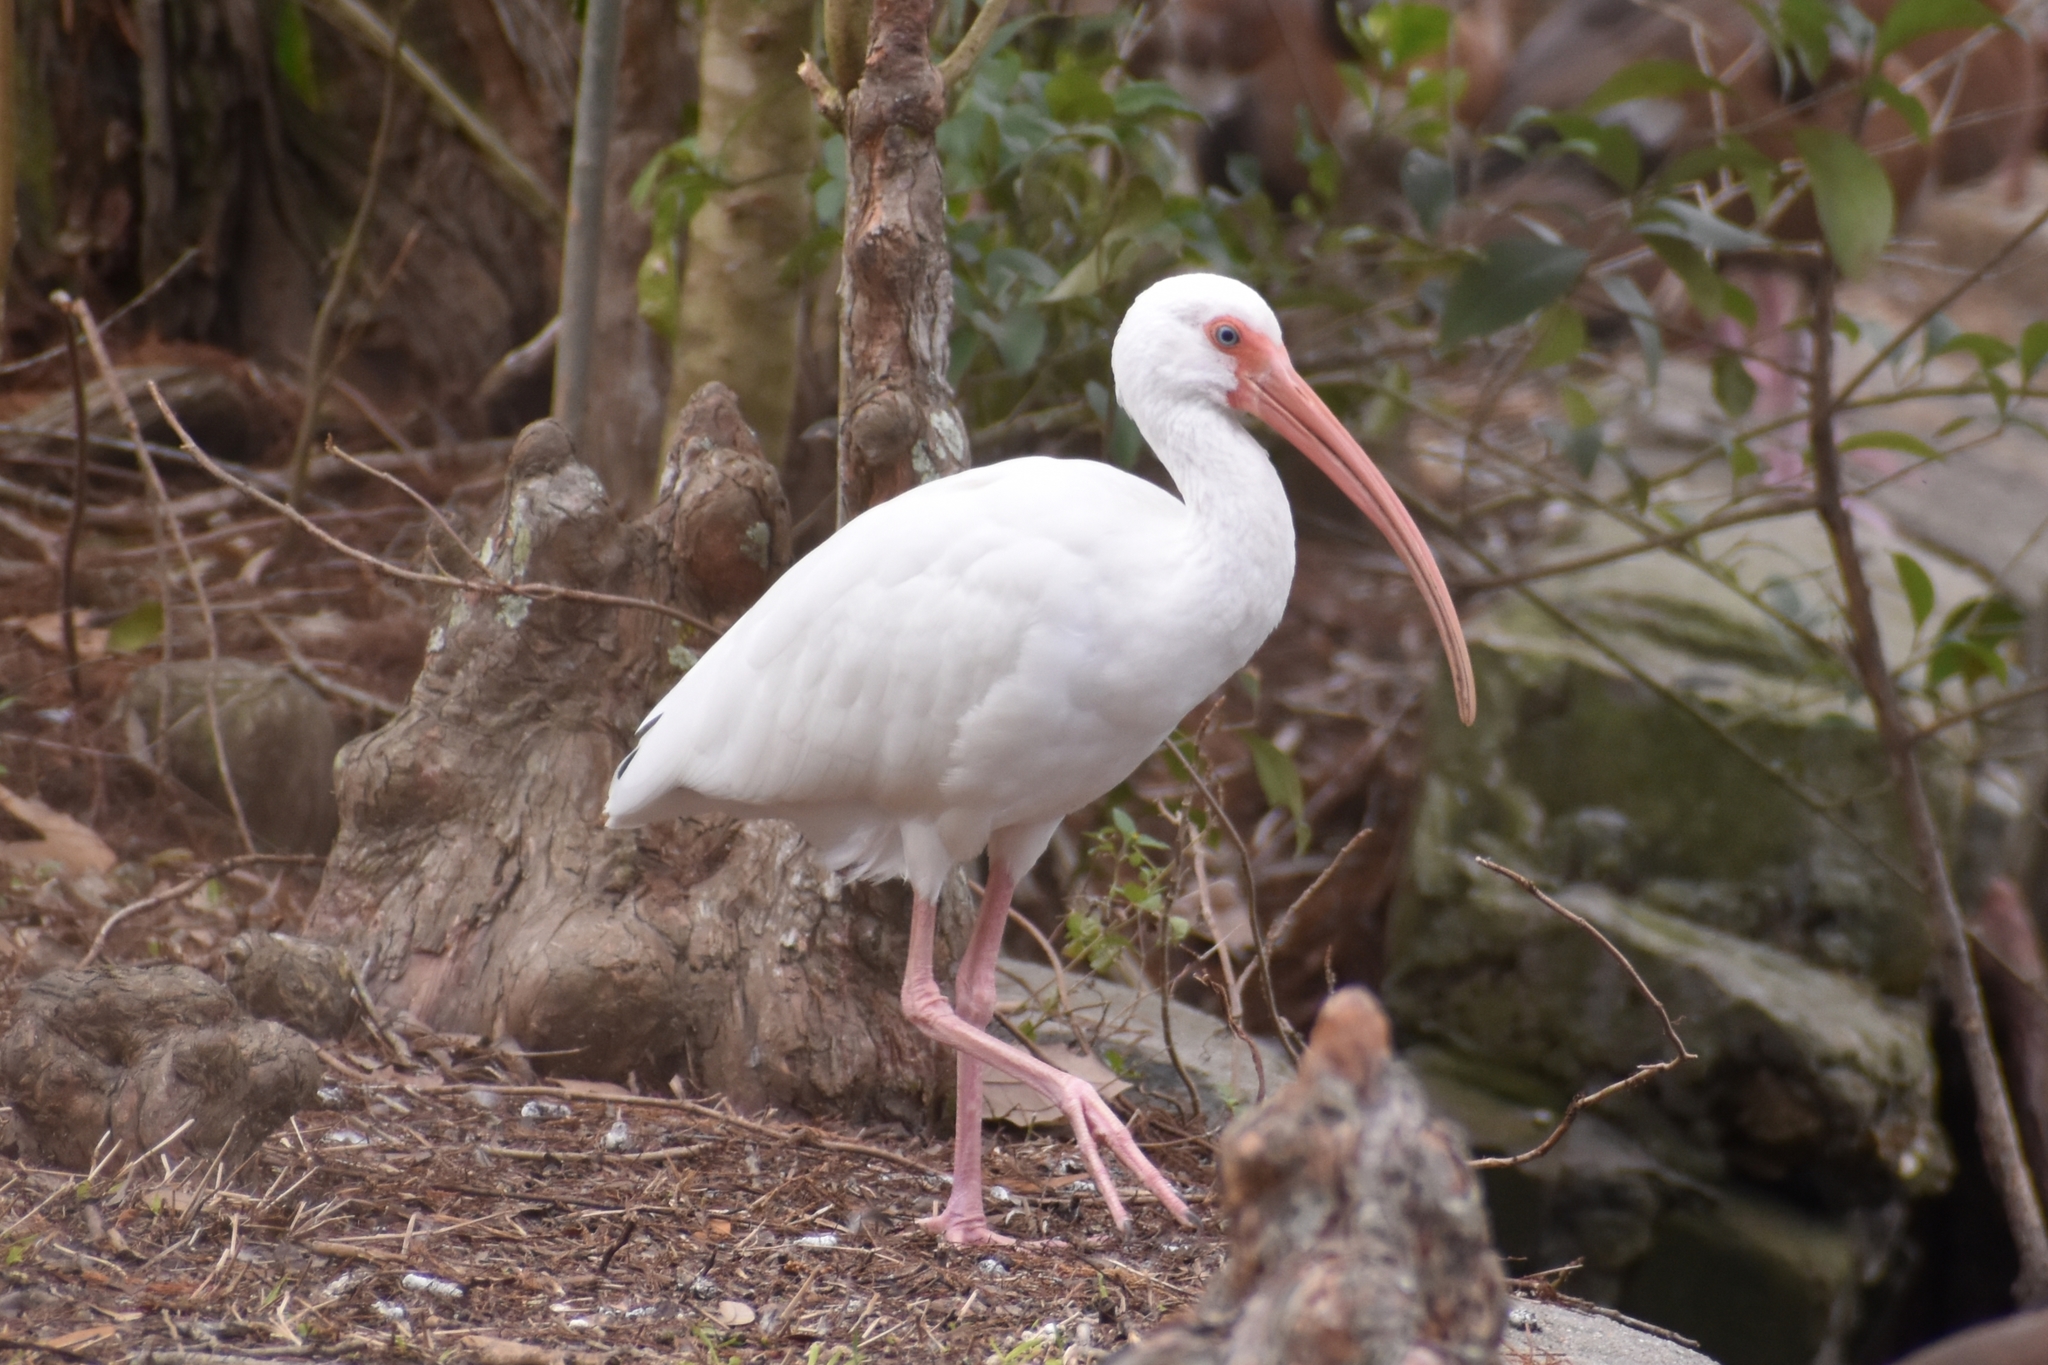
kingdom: Animalia
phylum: Chordata
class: Aves
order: Pelecaniformes
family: Threskiornithidae
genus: Eudocimus
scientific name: Eudocimus albus
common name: White ibis
